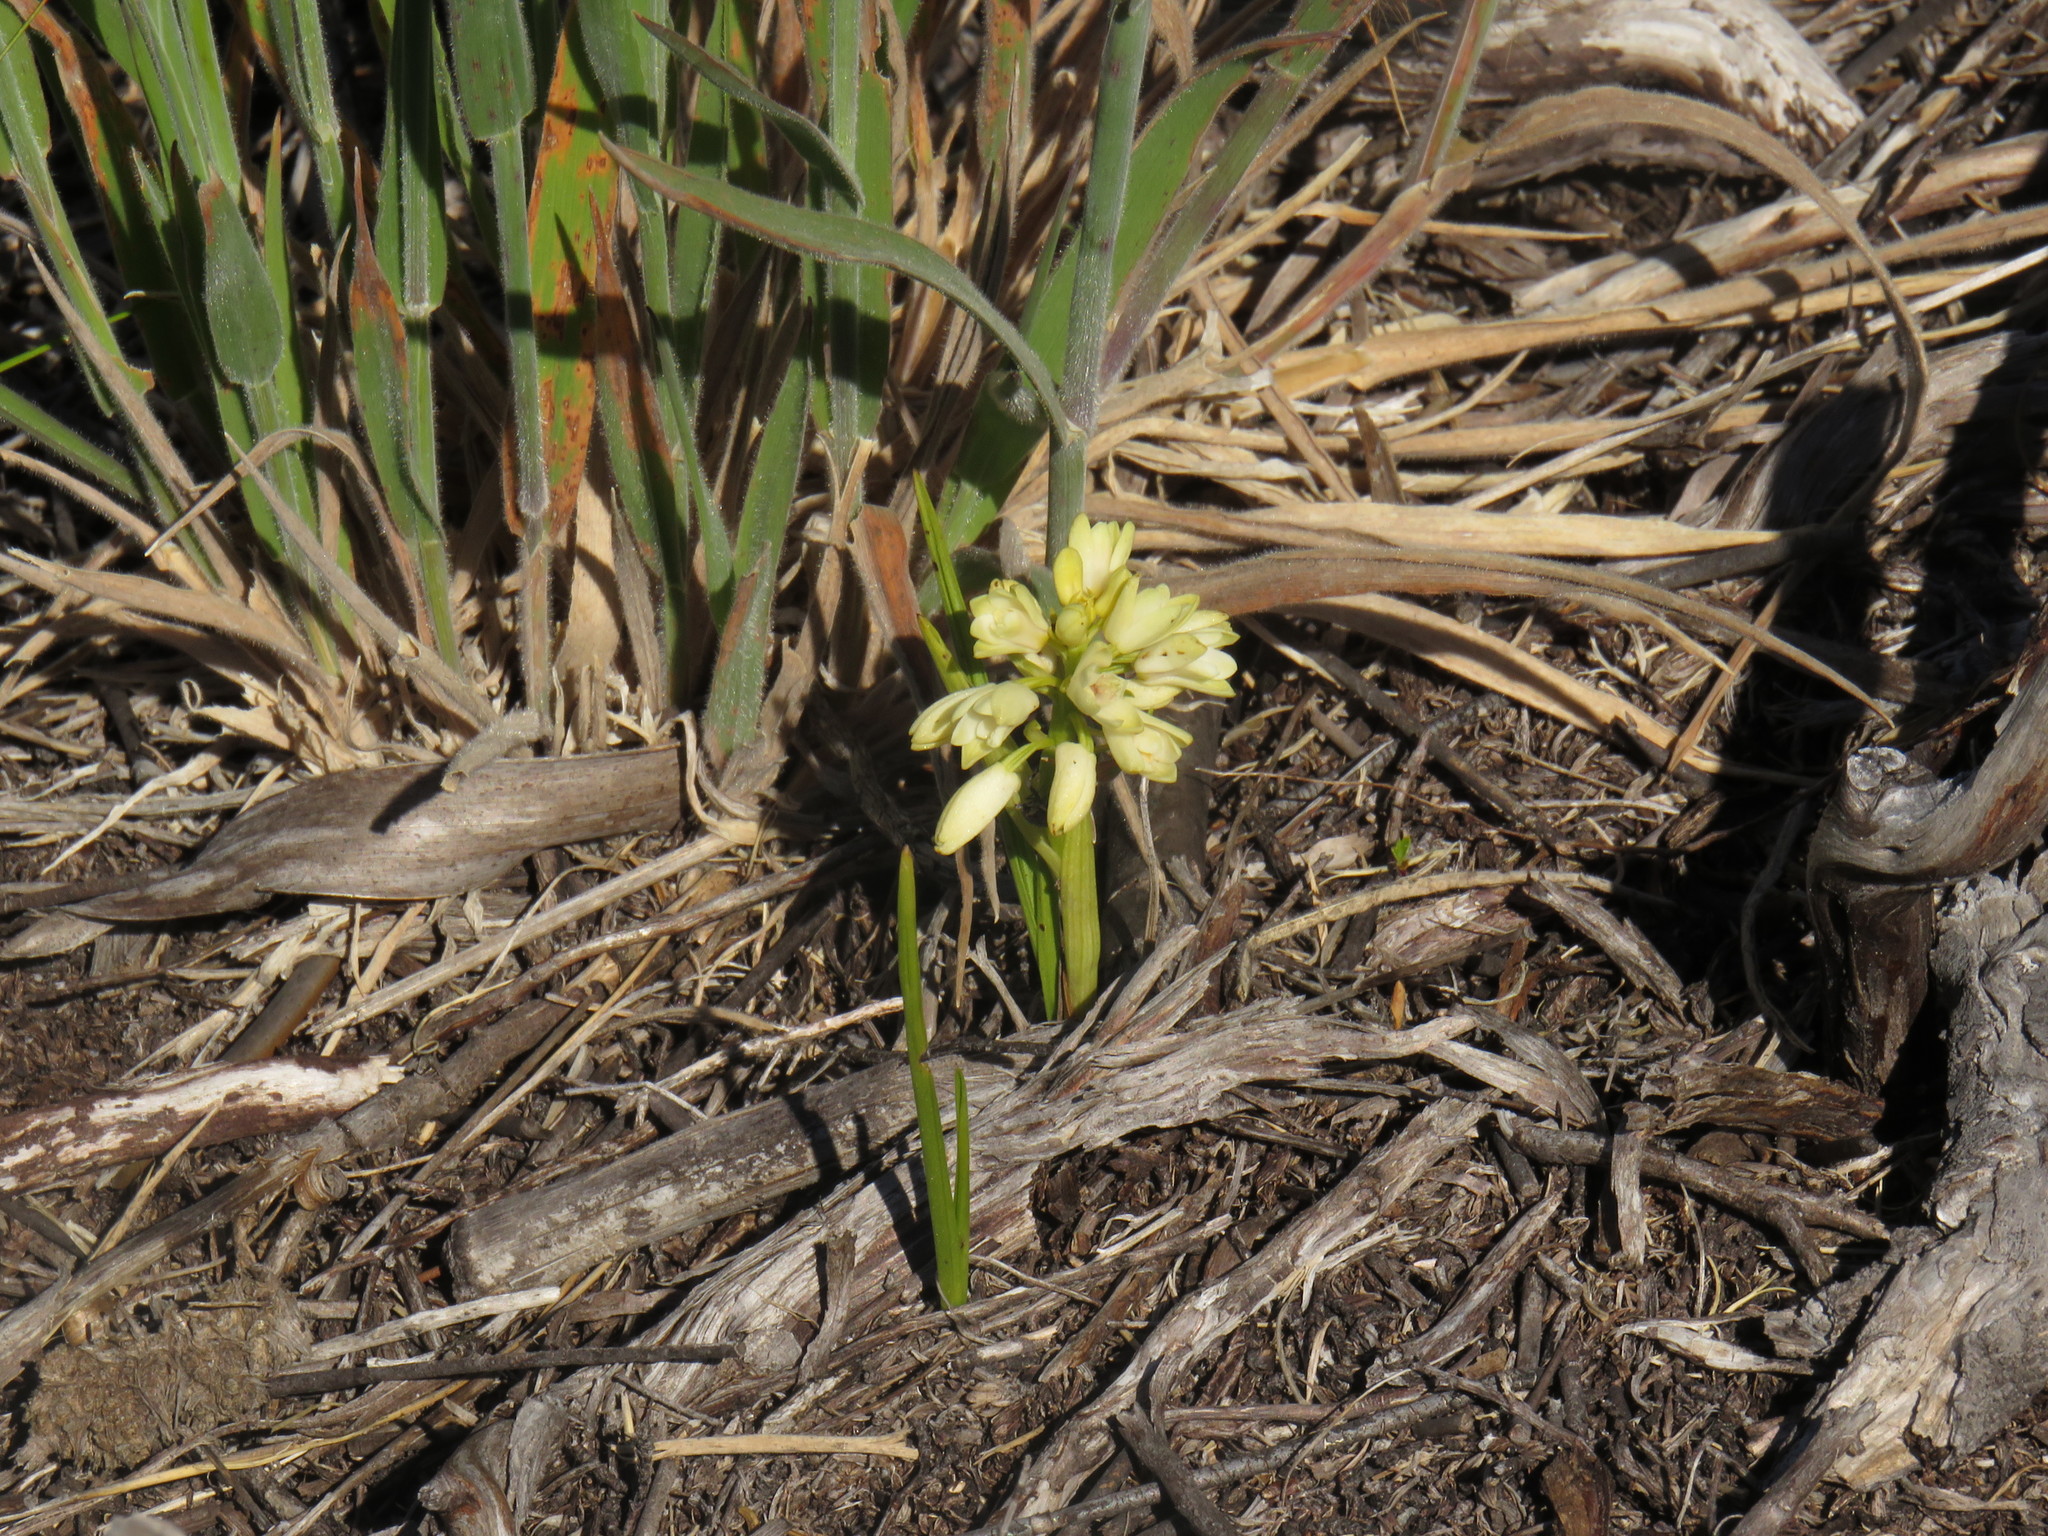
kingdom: Plantae
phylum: Tracheophyta
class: Liliopsida
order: Asparagales
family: Orchidaceae
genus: Eulophia
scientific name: Eulophia aculeata
